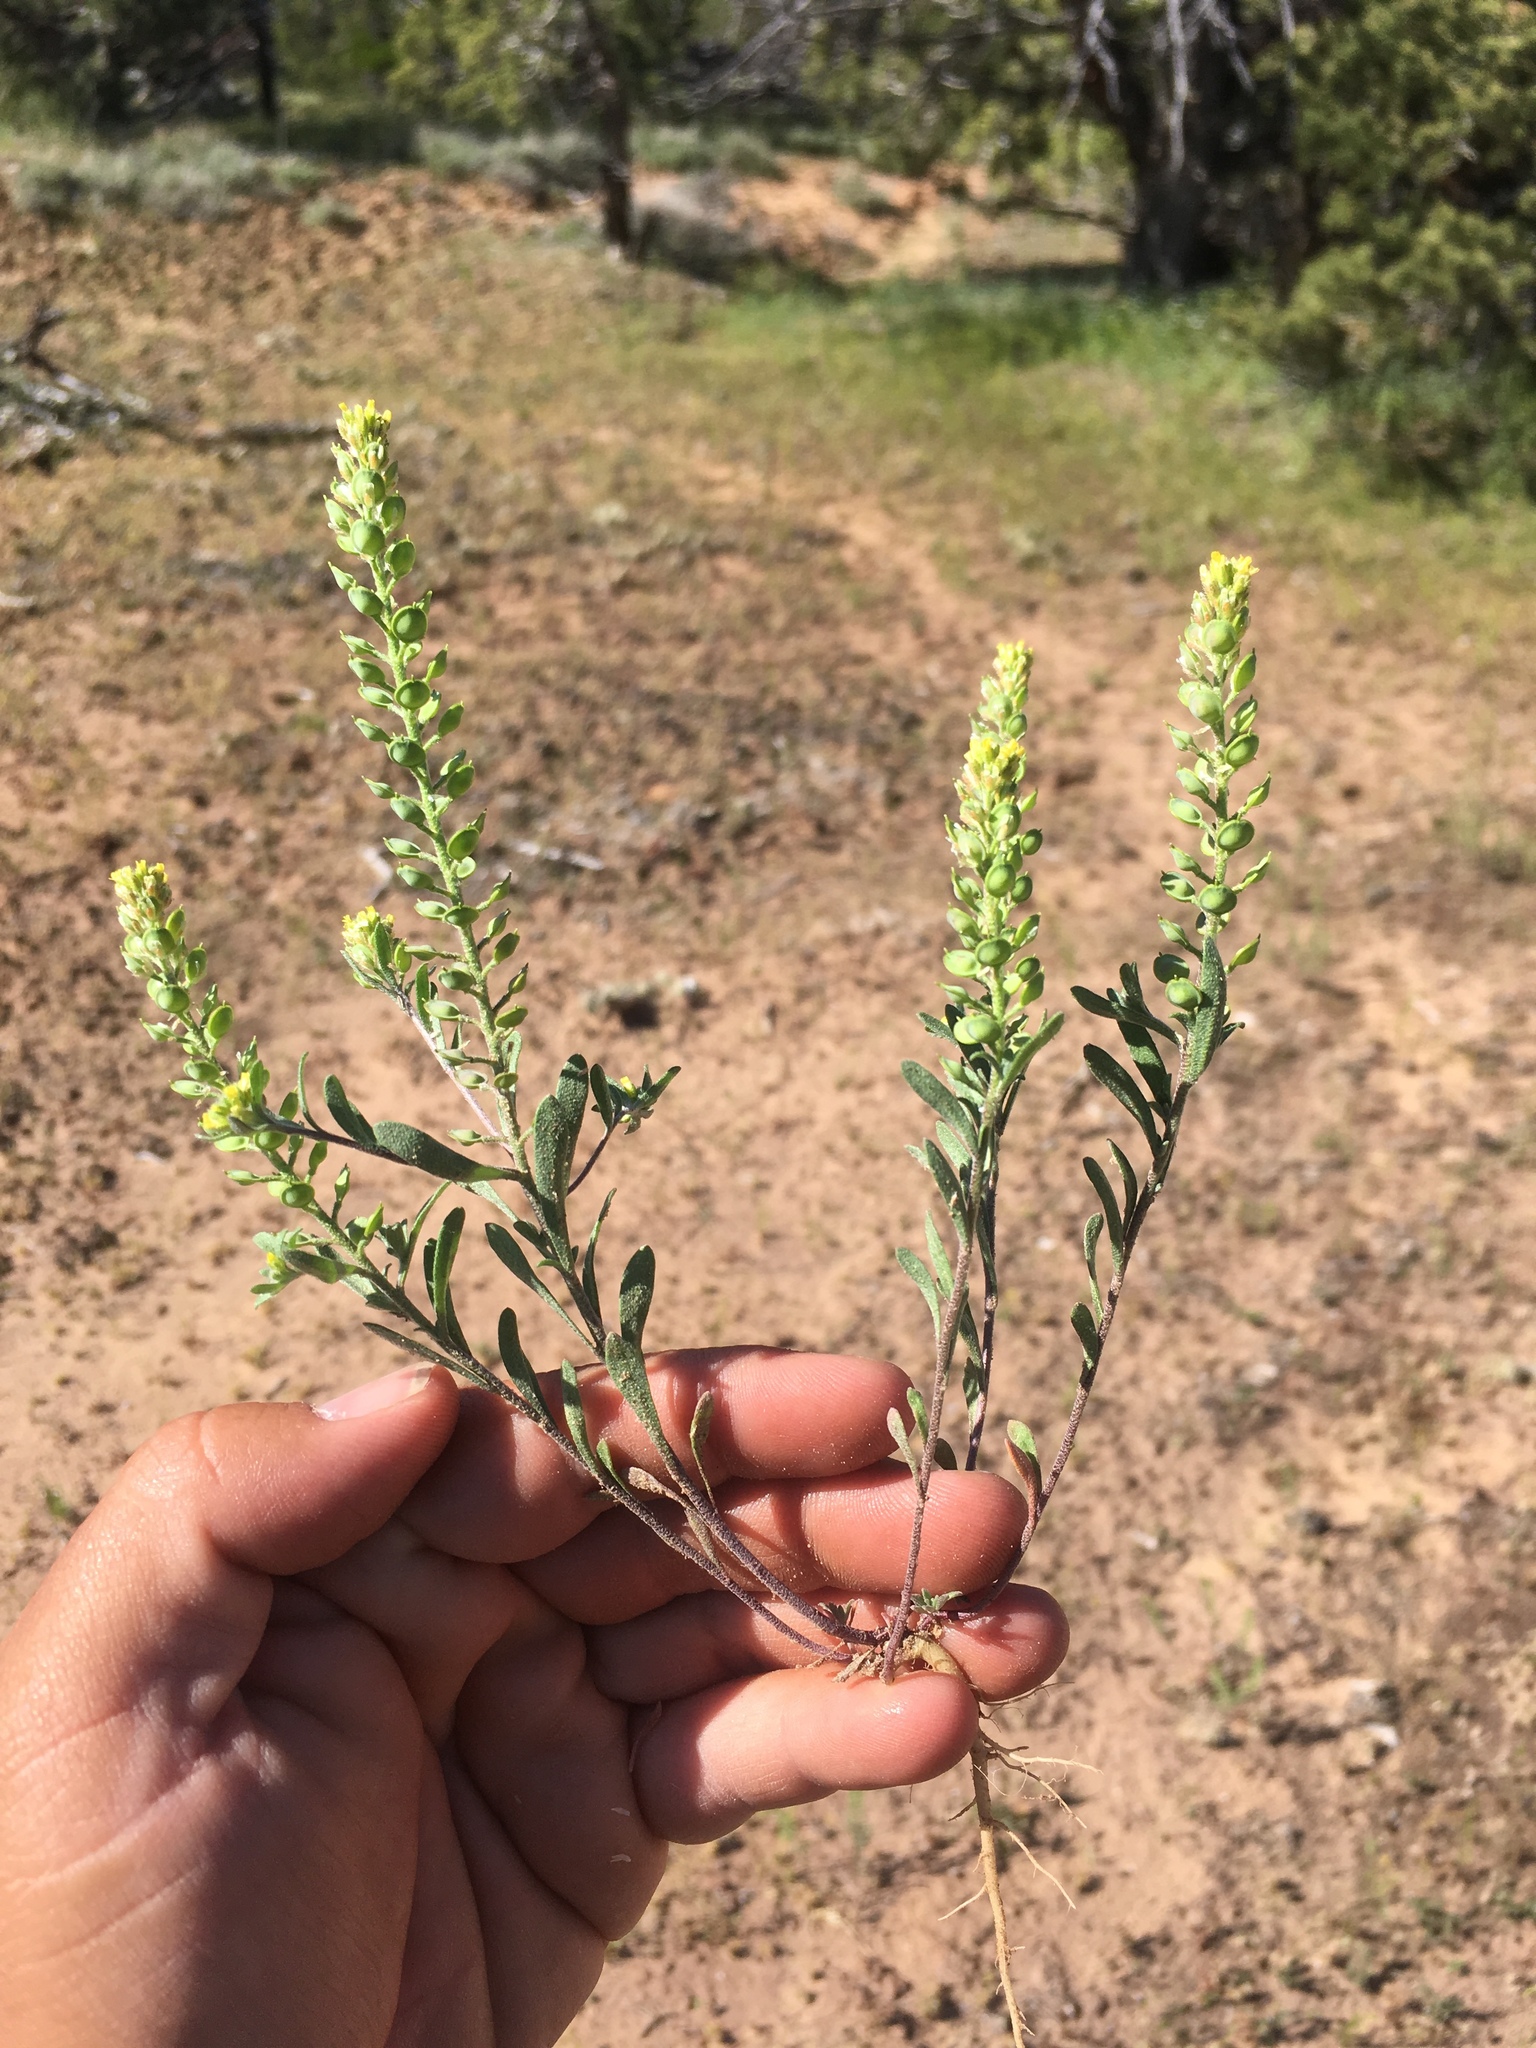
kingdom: Plantae
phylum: Tracheophyta
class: Magnoliopsida
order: Brassicales
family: Brassicaceae
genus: Alyssum
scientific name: Alyssum turkestanicum
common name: Desert alyssum
